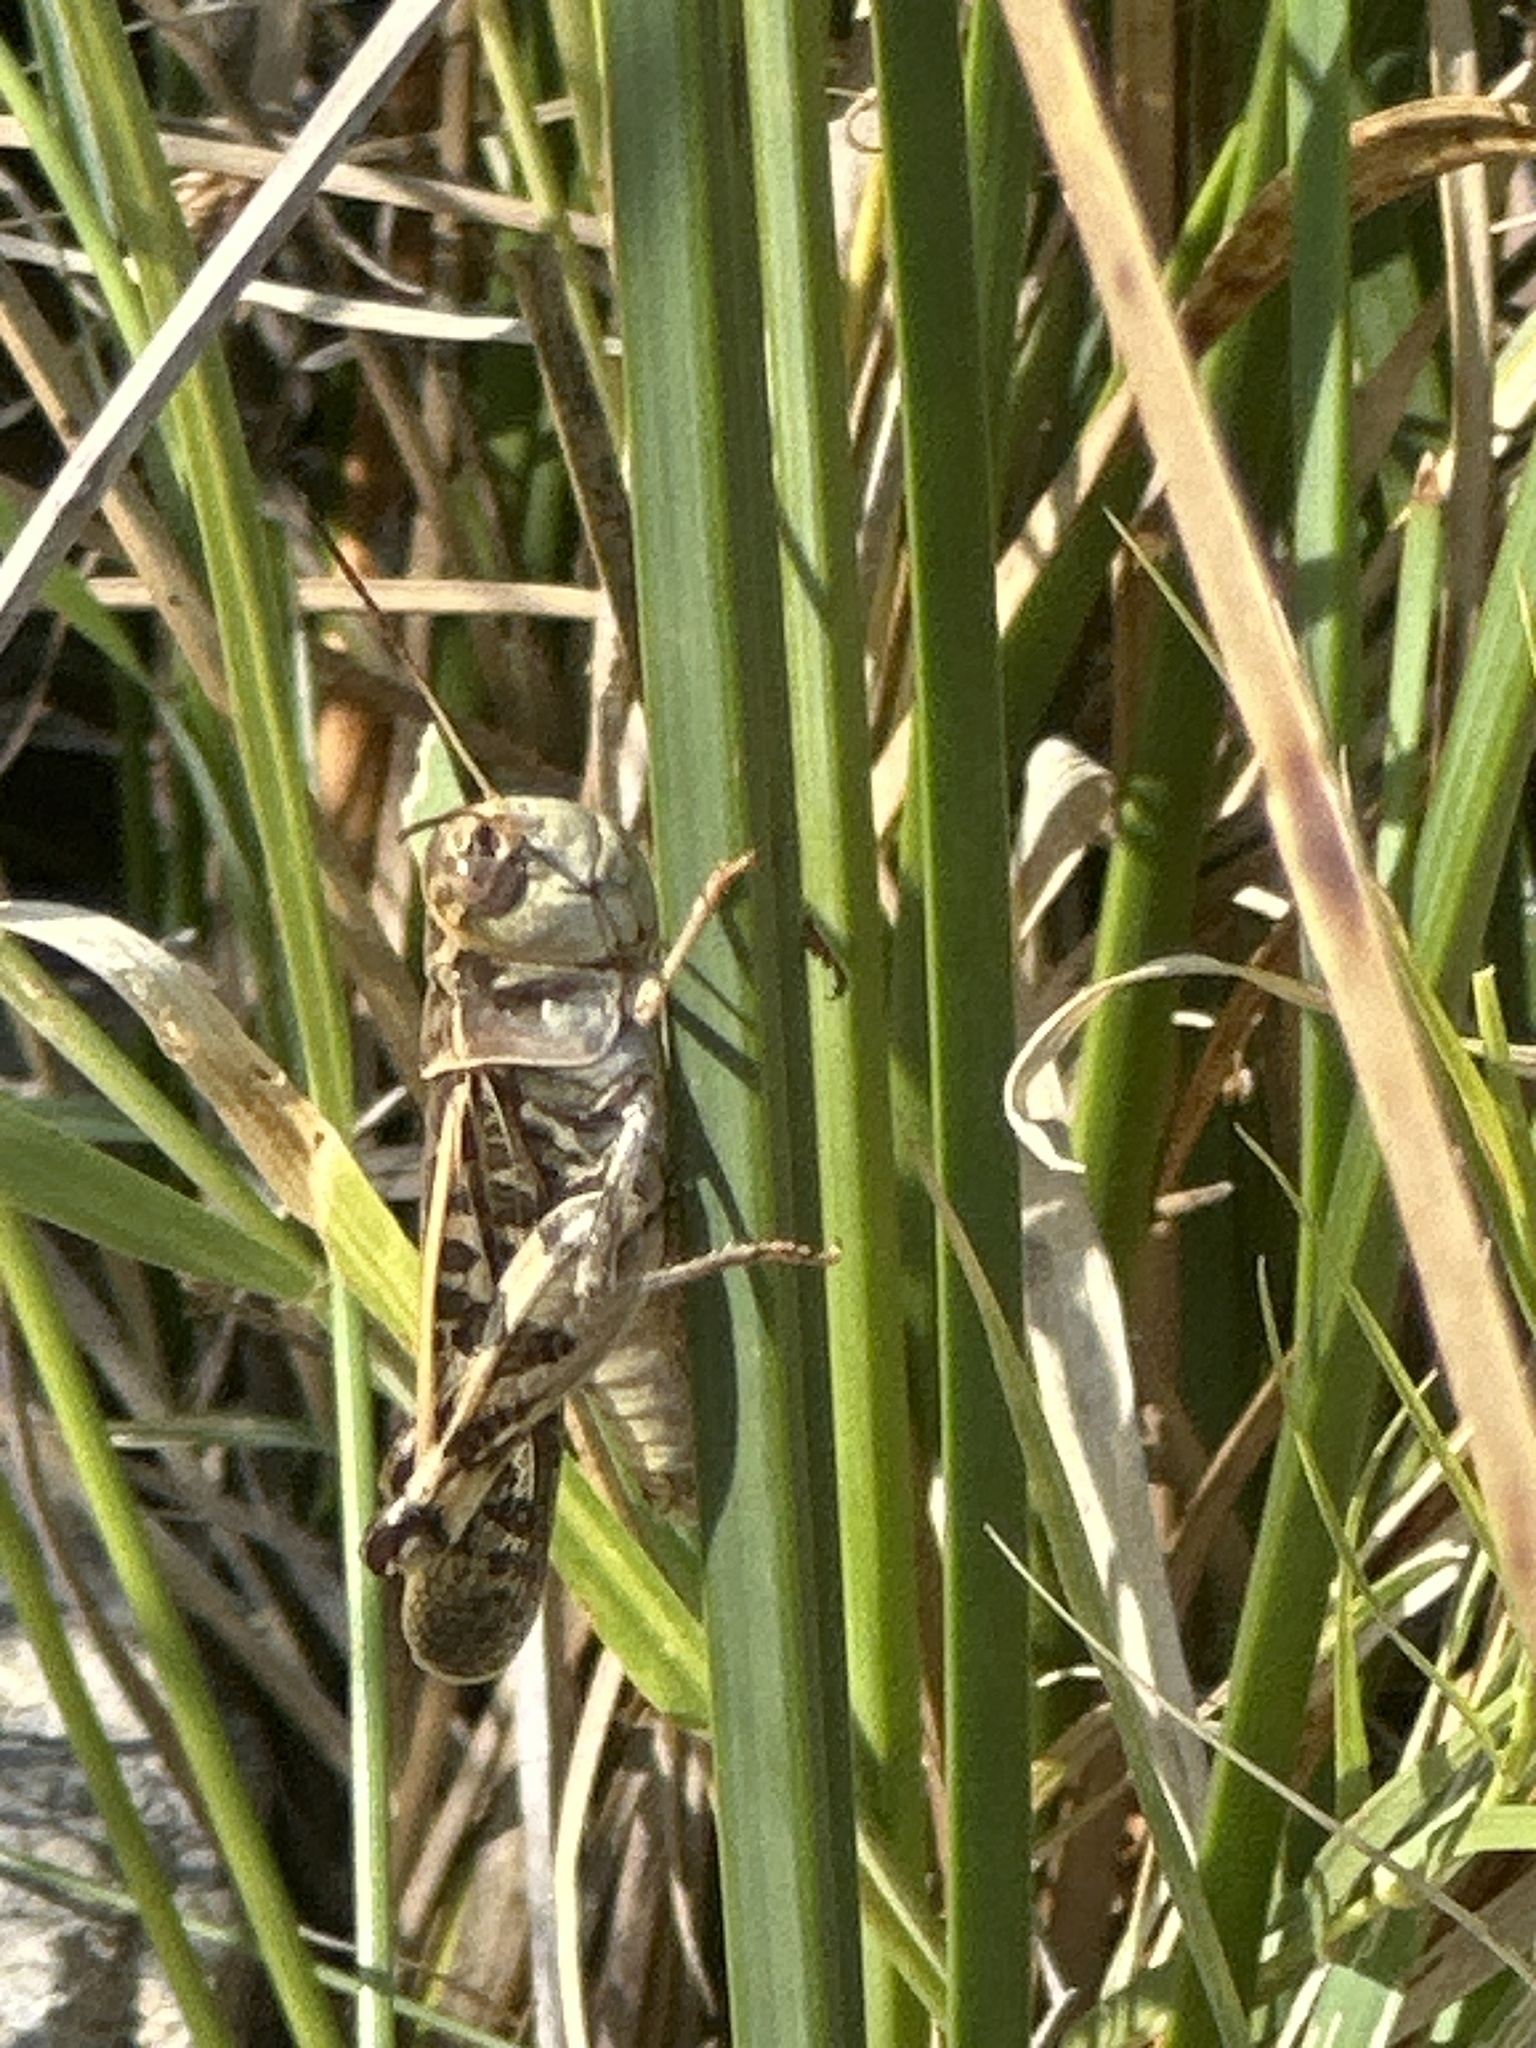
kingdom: Animalia
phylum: Arthropoda
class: Insecta
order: Orthoptera
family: Acrididae
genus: Hippiscus
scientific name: Hippiscus ocelote
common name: Wrinkled grasshopper
